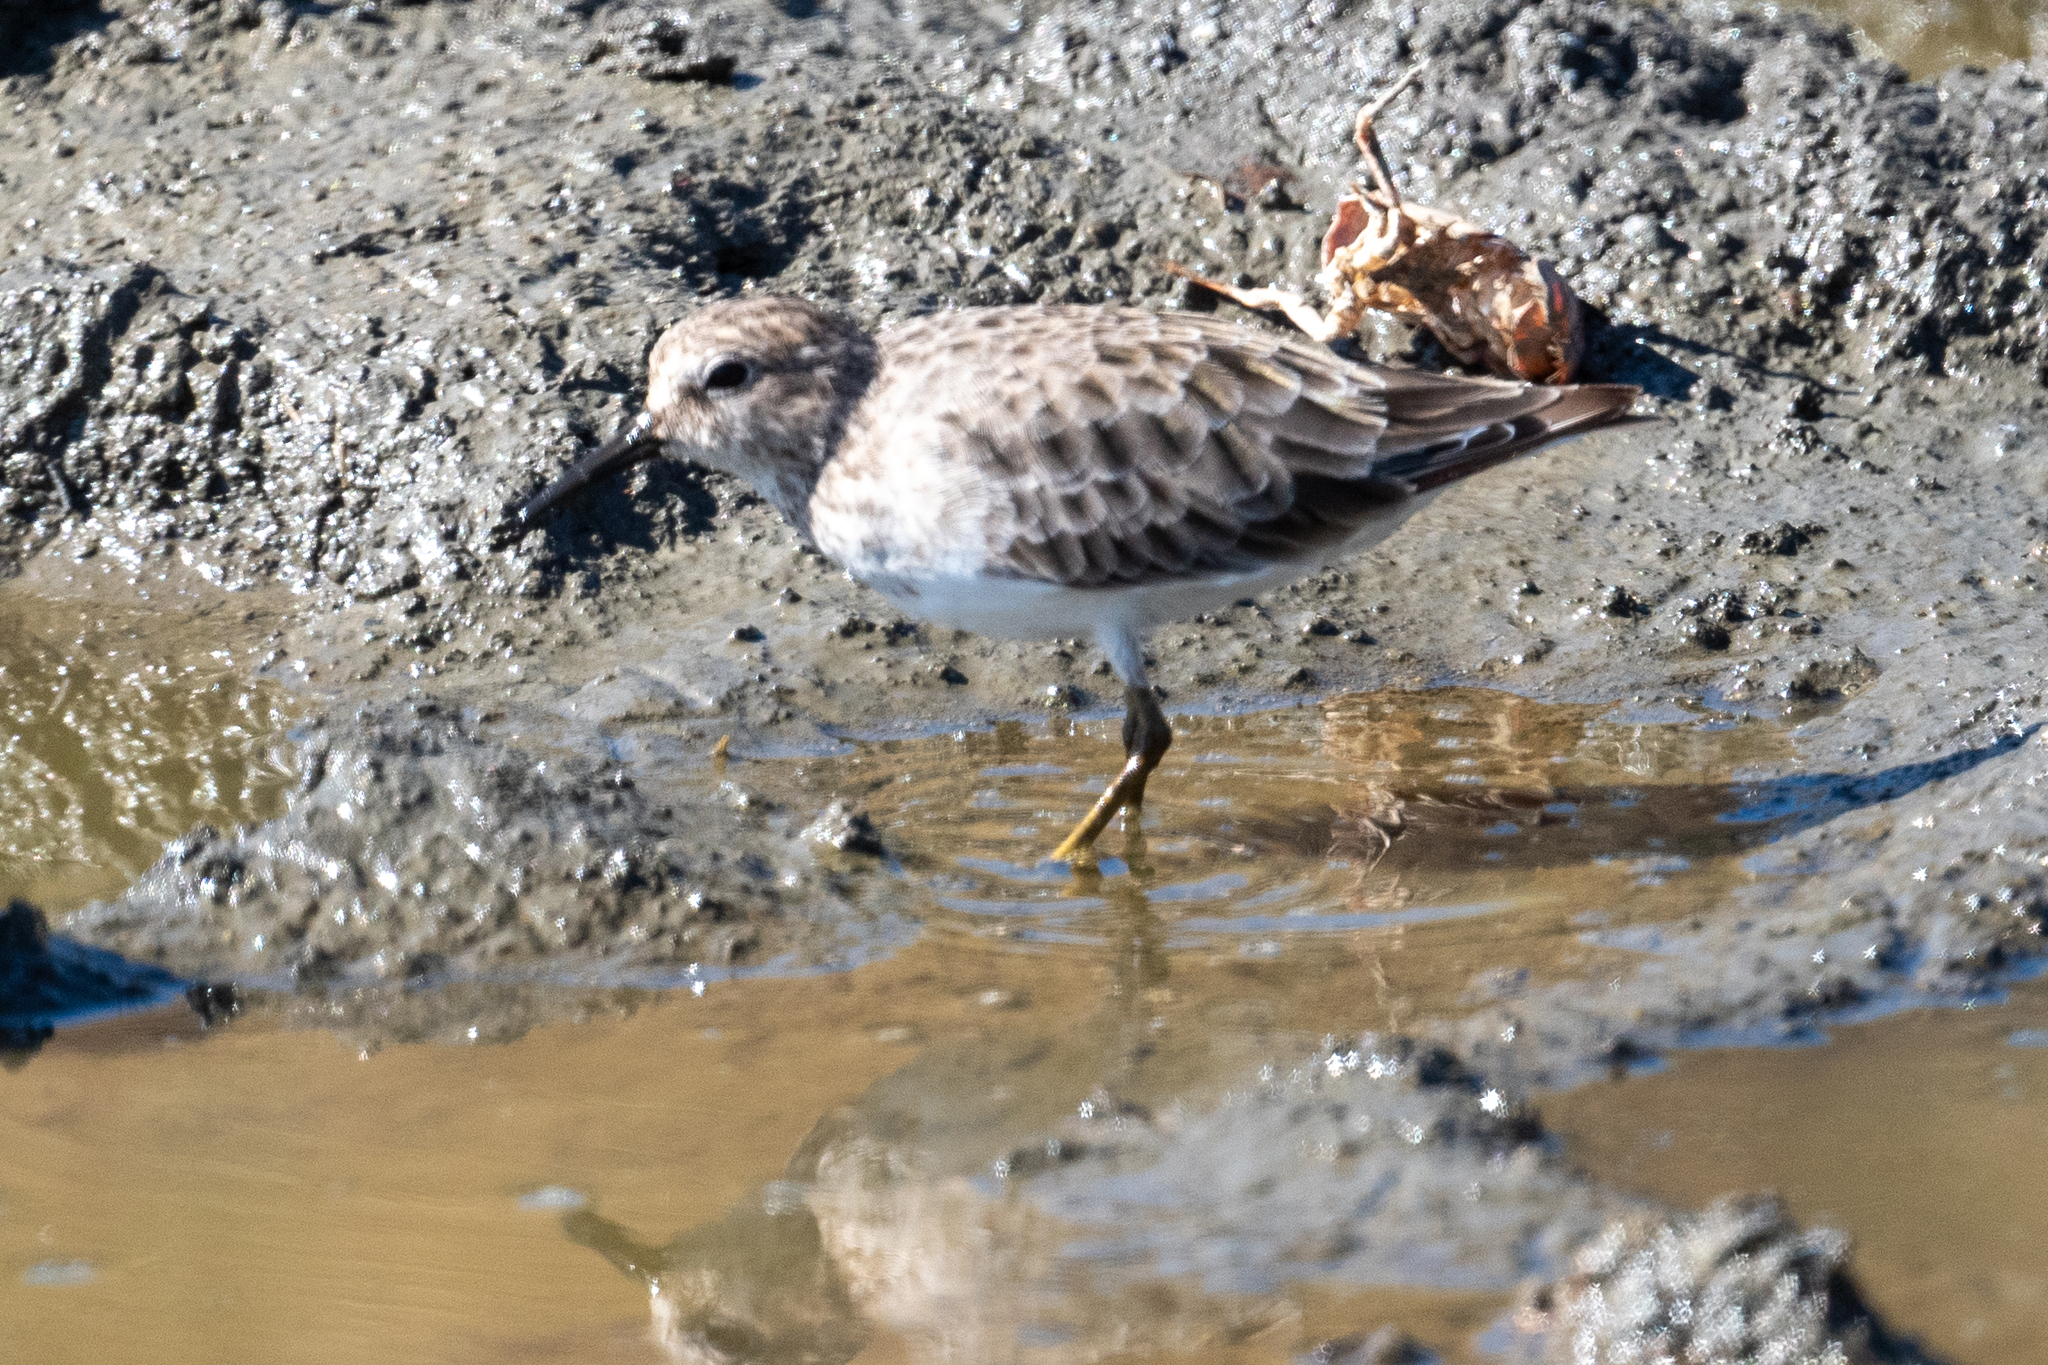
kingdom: Animalia
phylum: Chordata
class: Aves
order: Charadriiformes
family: Scolopacidae
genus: Calidris
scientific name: Calidris minutilla
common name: Least sandpiper
